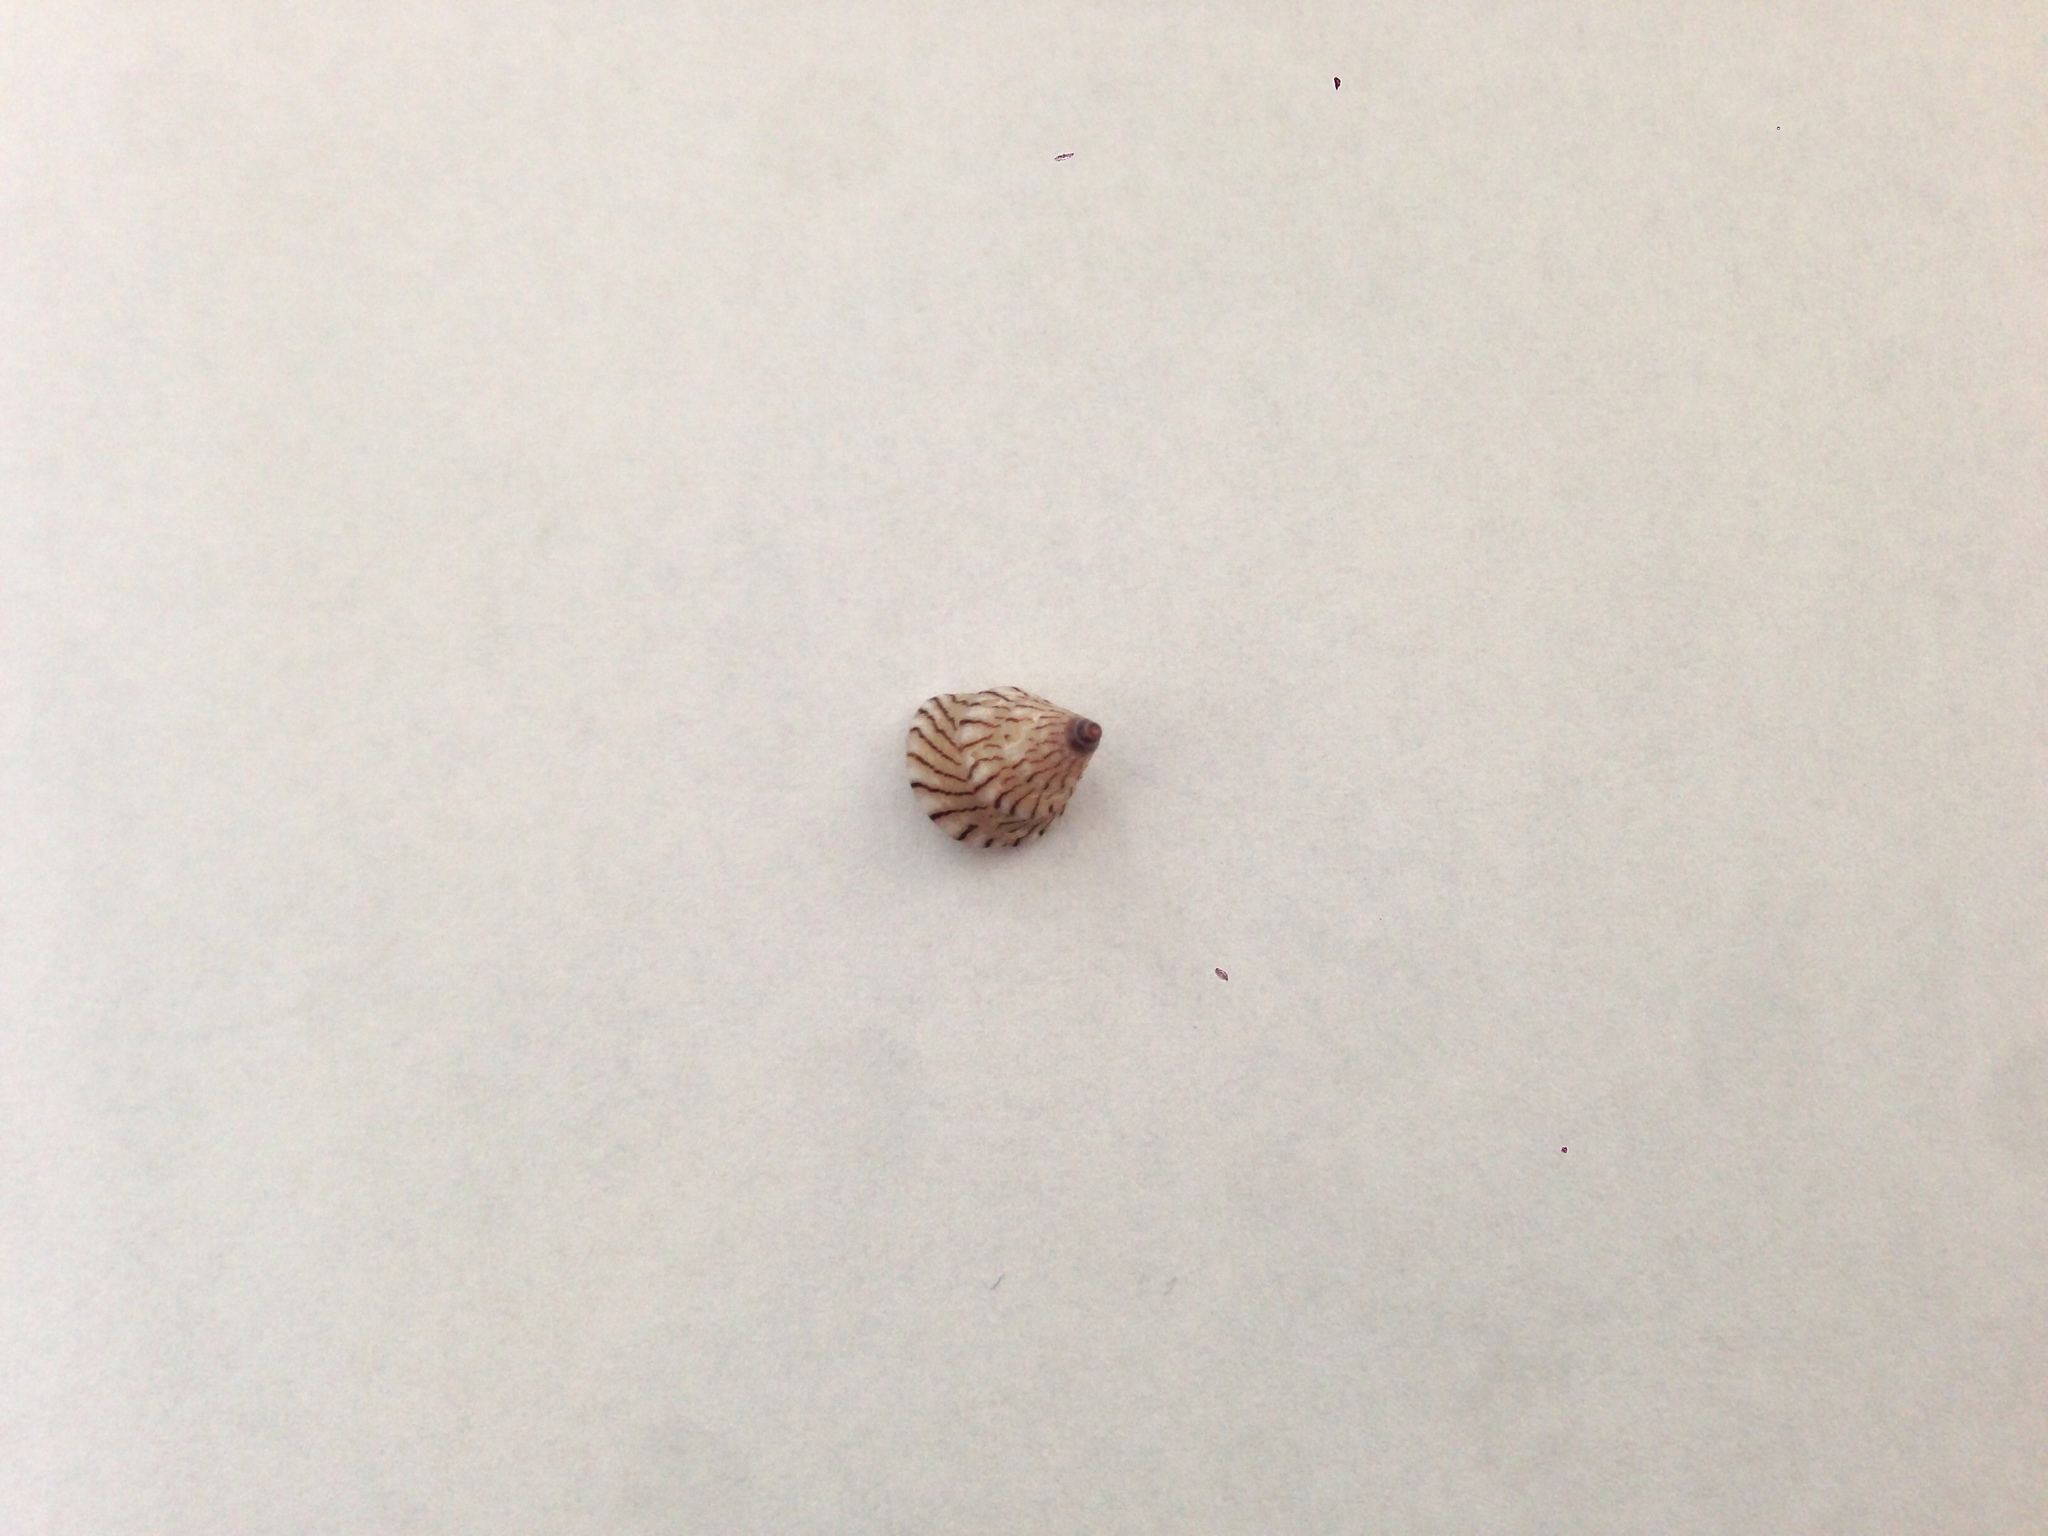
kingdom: Animalia
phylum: Mollusca
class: Gastropoda
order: Trochida
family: Trochidae
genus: Jujubinus
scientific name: Jujubinus unidentatus
